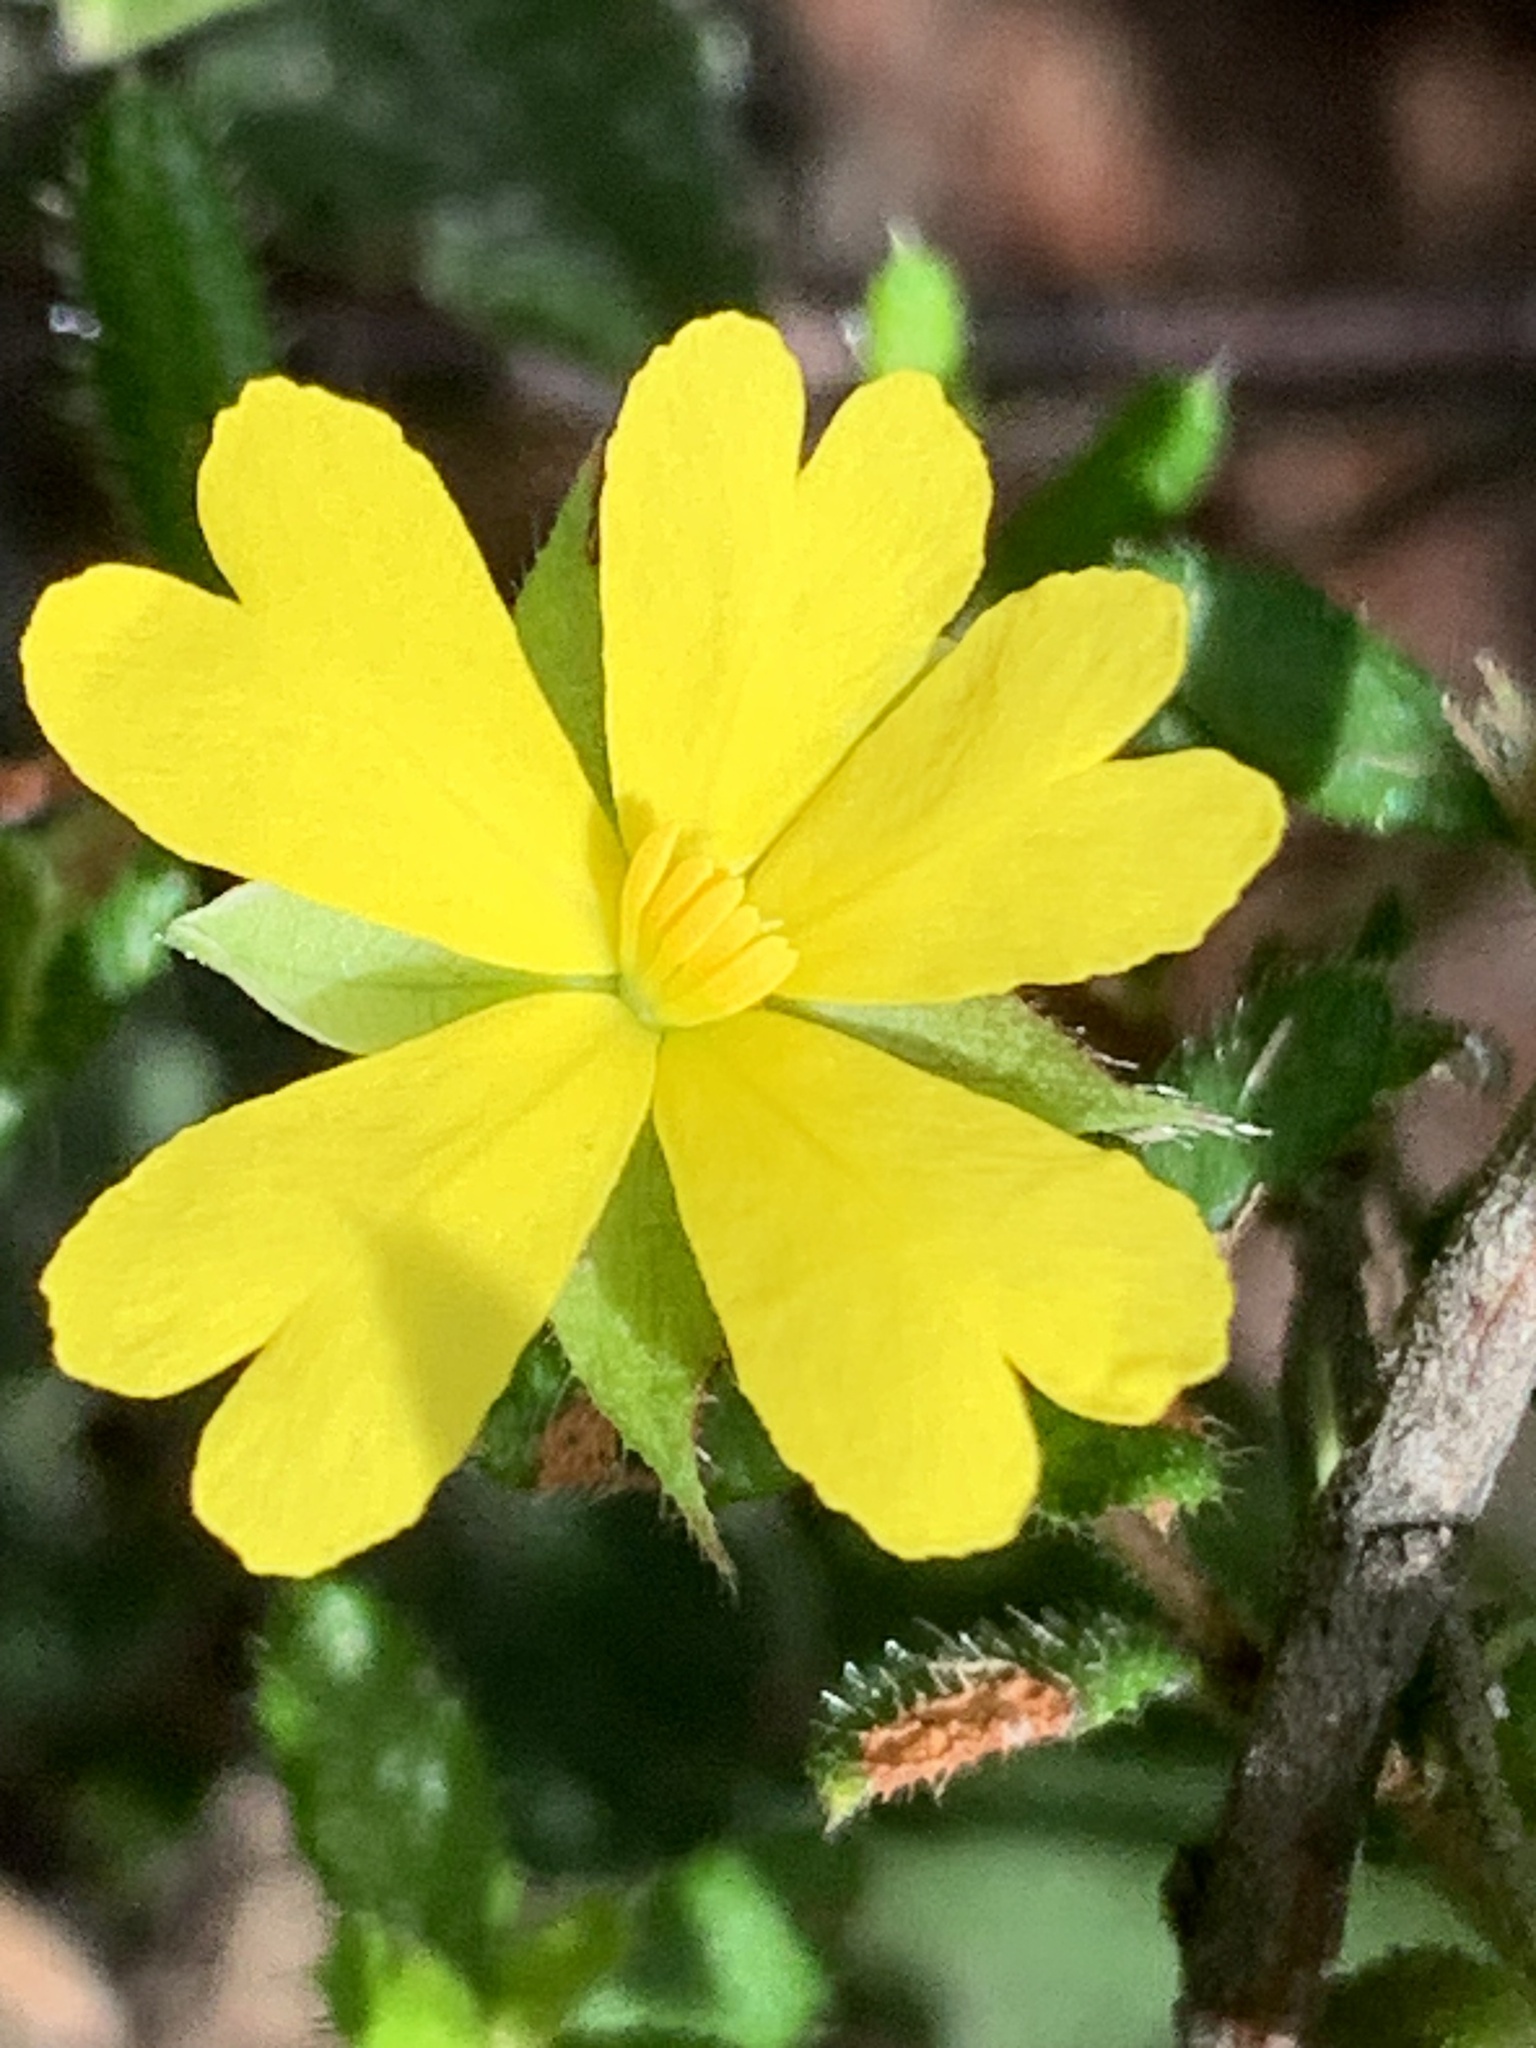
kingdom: Plantae
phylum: Tracheophyta
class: Magnoliopsida
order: Dilleniales
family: Dilleniaceae
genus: Hibbertia
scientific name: Hibbertia empetrifolia
